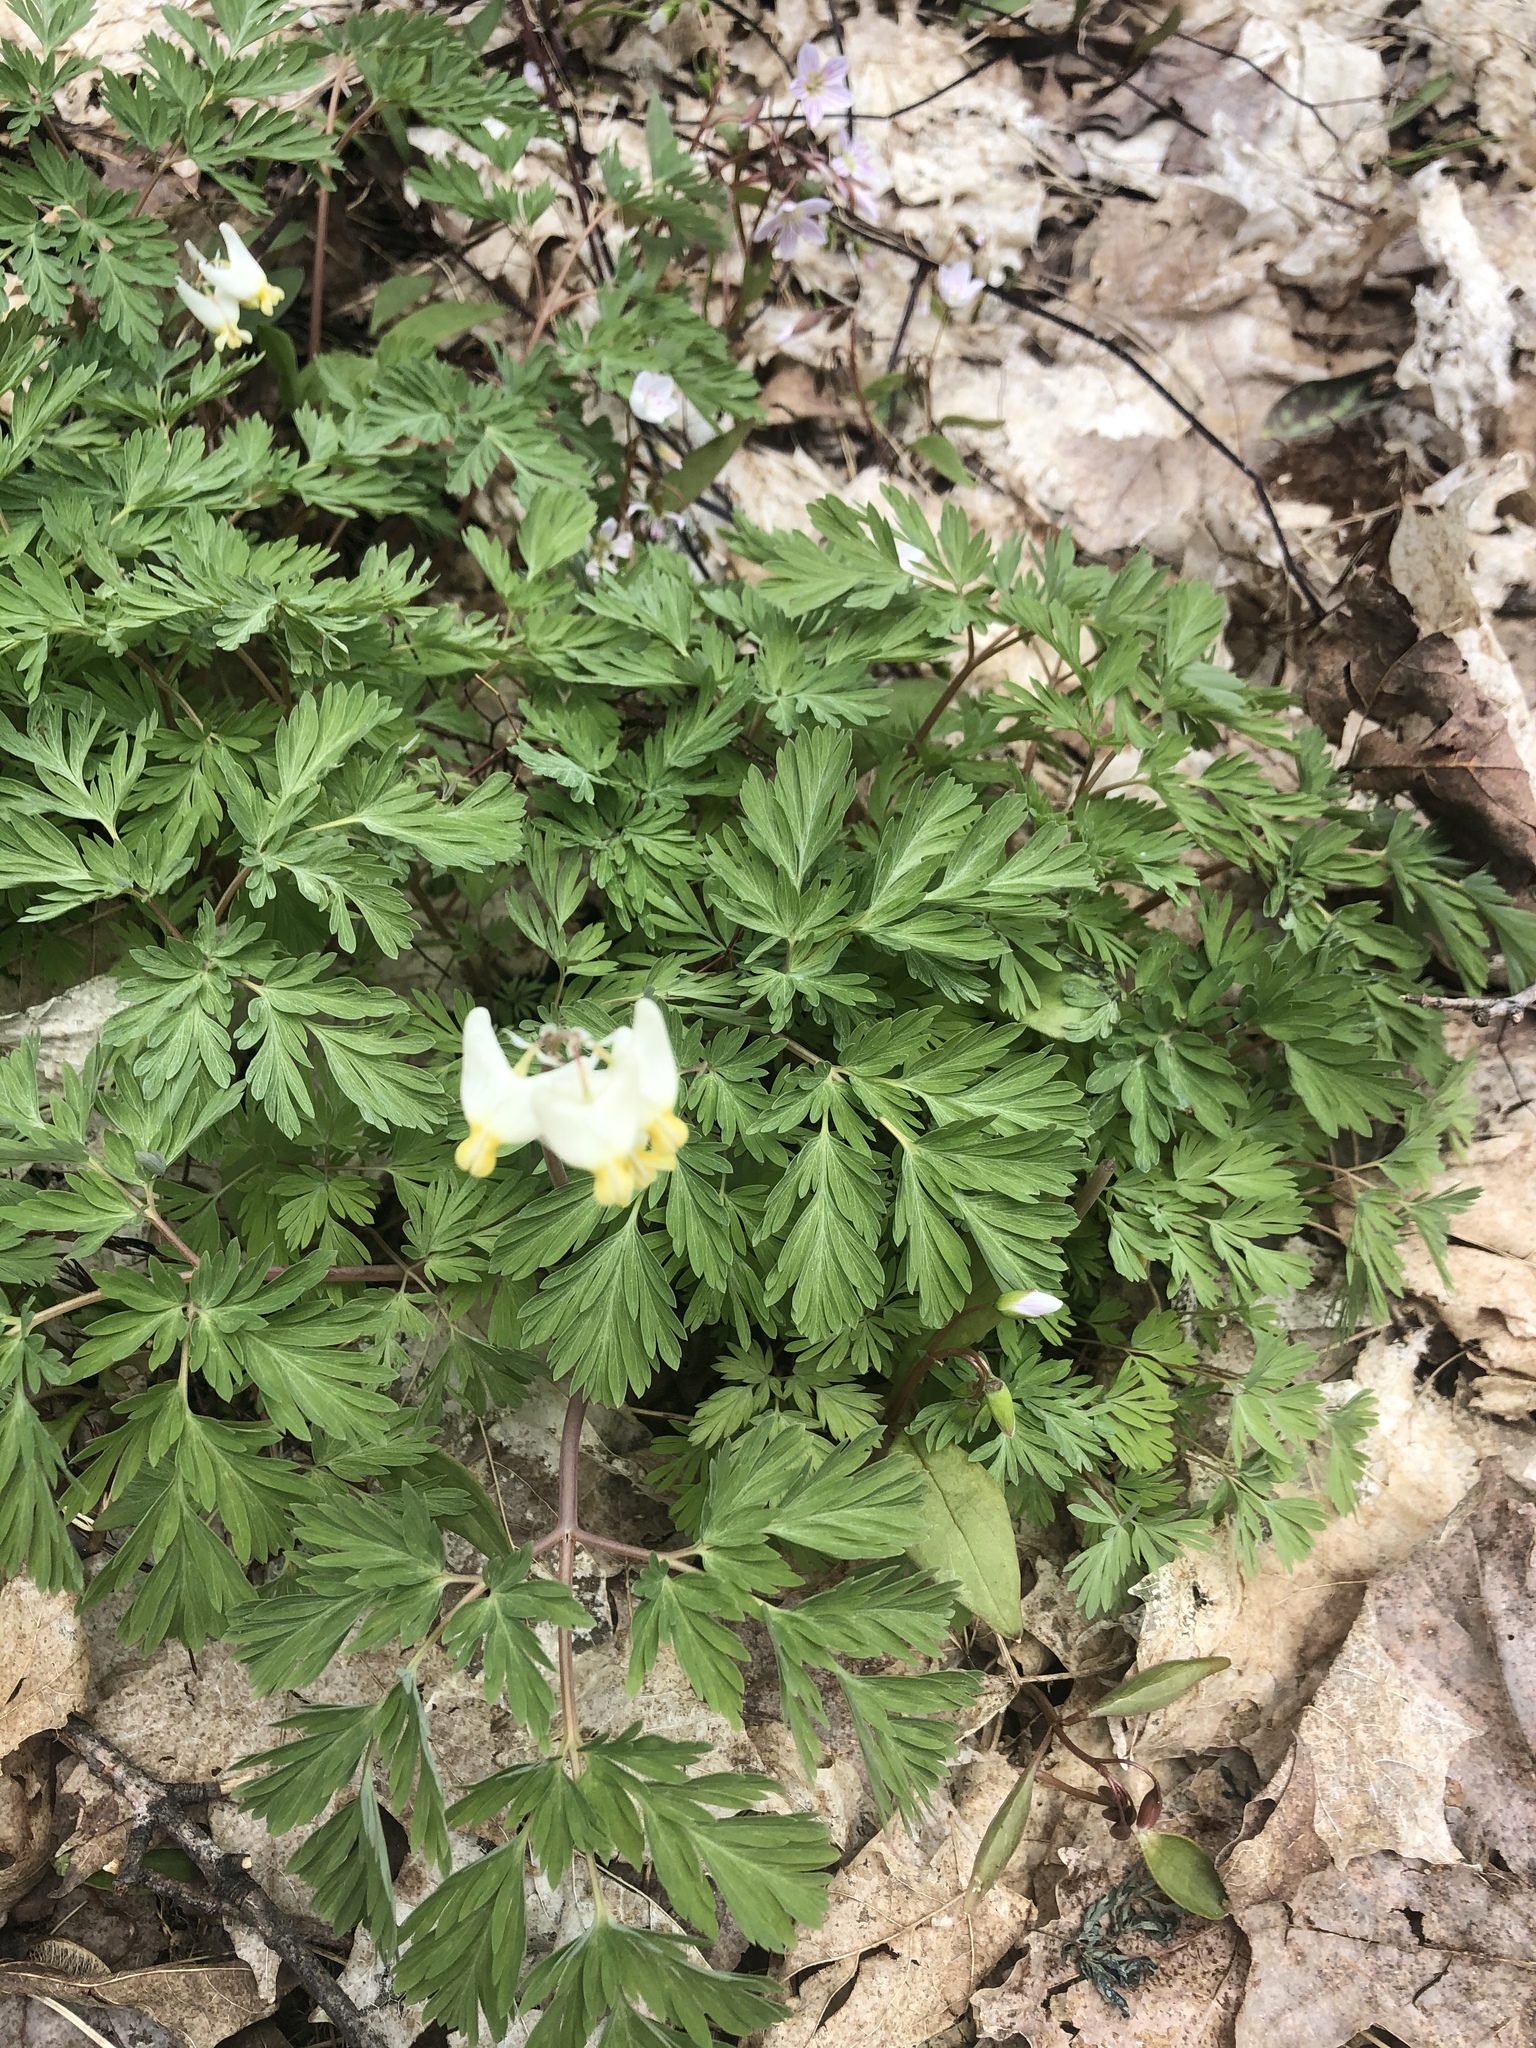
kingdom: Plantae
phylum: Tracheophyta
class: Magnoliopsida
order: Ranunculales
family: Papaveraceae
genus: Dicentra
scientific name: Dicentra cucullaria
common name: Dutchman's breeches
